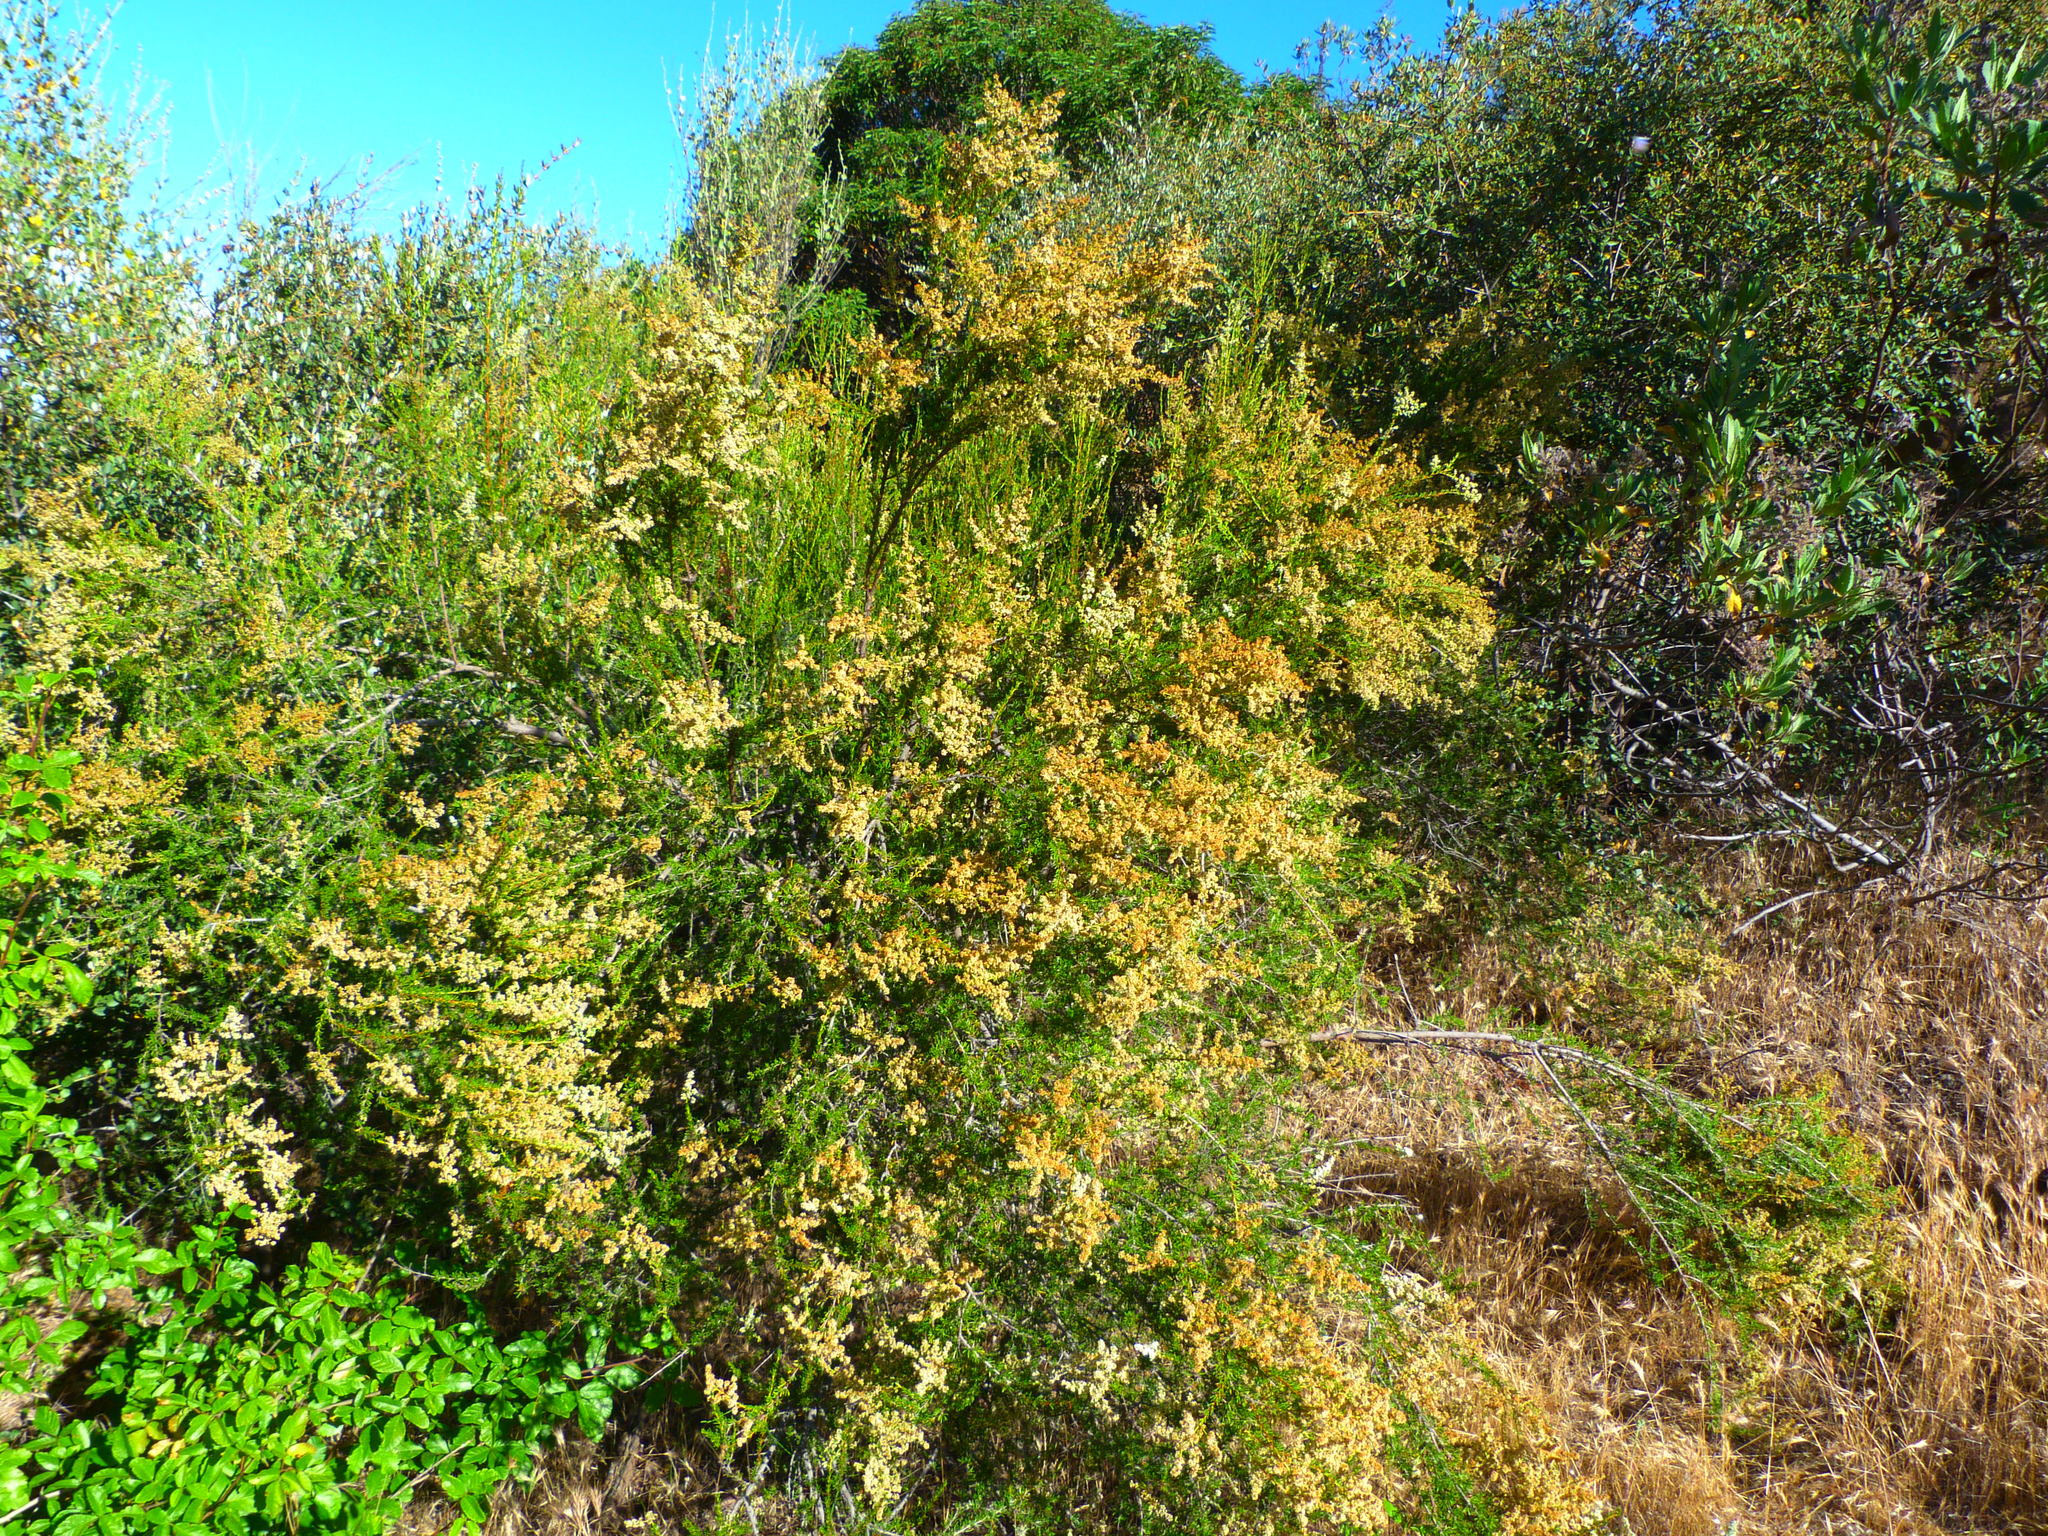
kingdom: Plantae
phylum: Tracheophyta
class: Magnoliopsida
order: Rosales
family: Rosaceae
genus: Adenostoma
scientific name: Adenostoma fasciculatum
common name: Chamise
